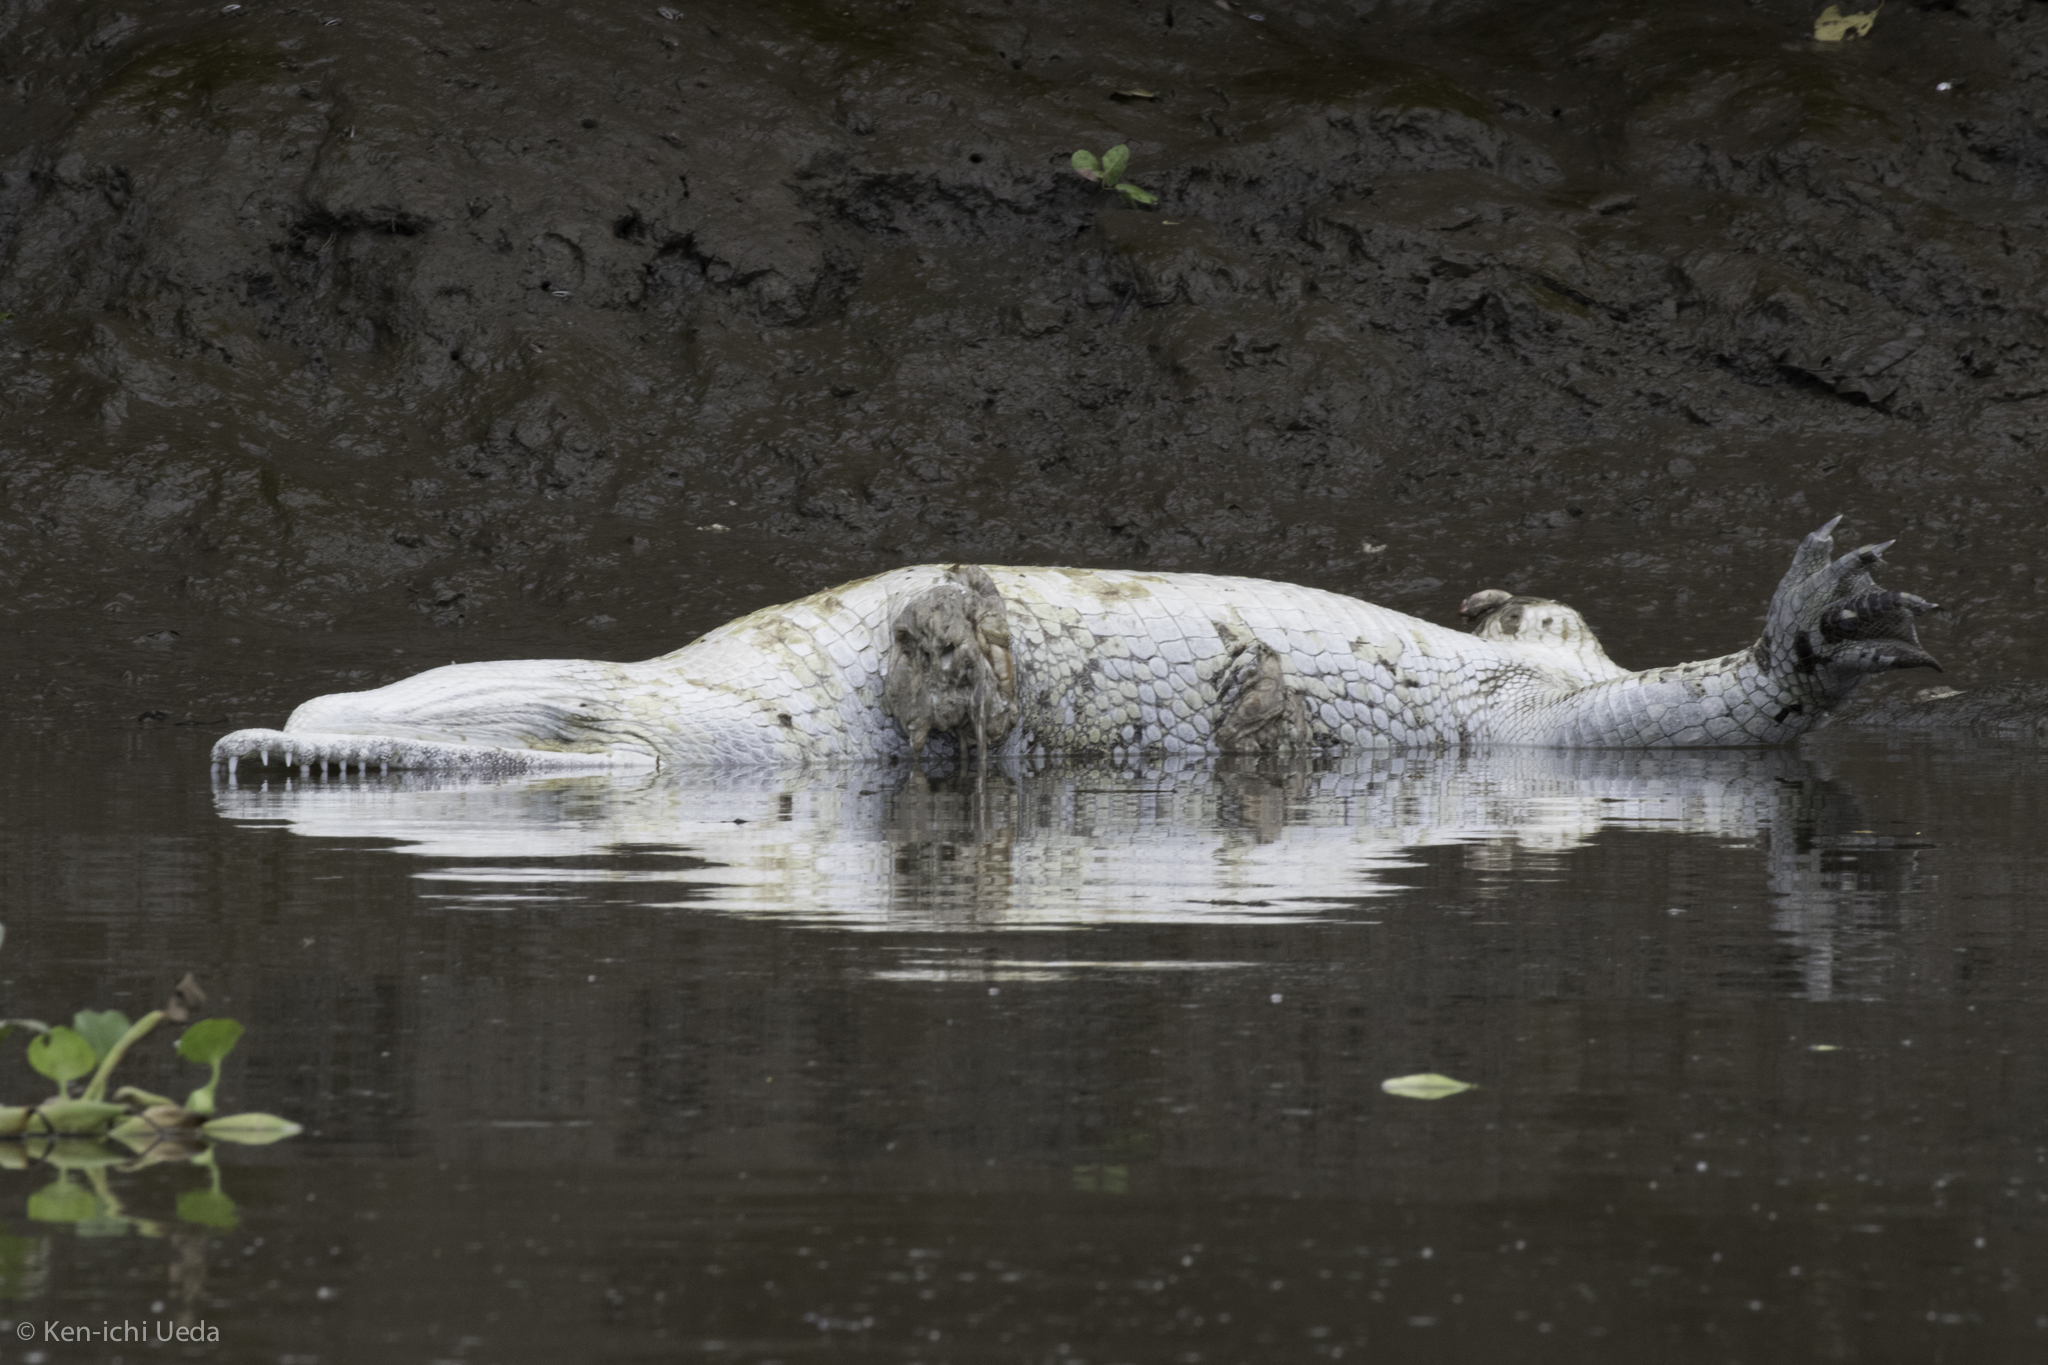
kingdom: Animalia
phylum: Chordata
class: Crocodylia
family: Crocodylidae
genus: Crocodylus
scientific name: Crocodylus acutus
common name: American crocodile
